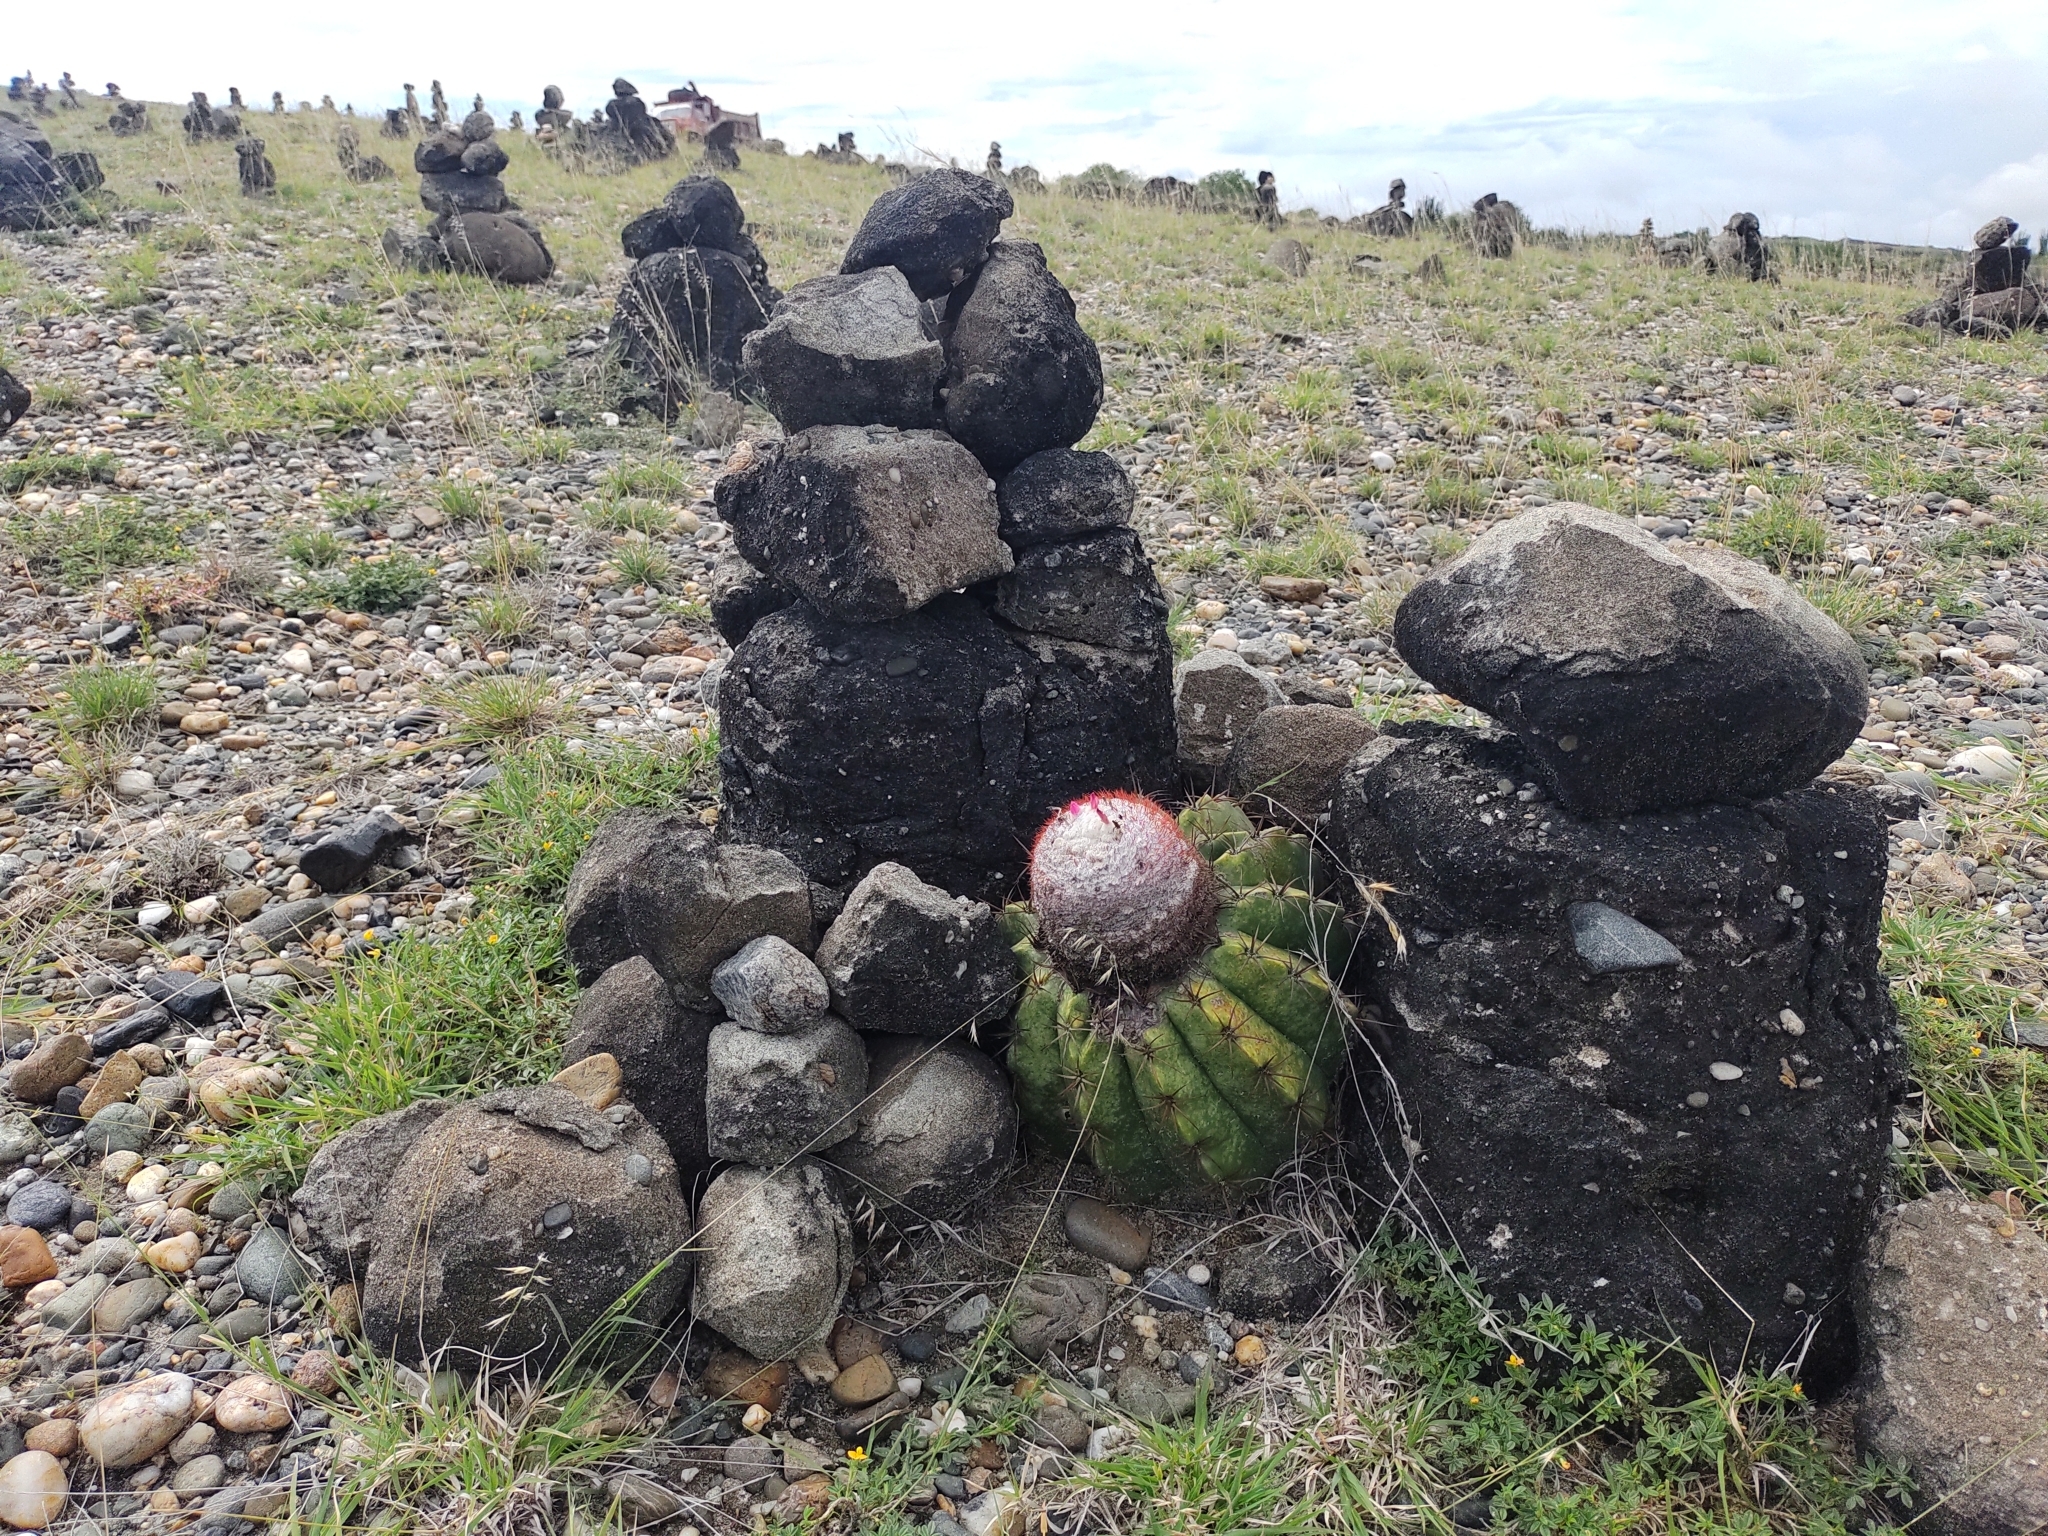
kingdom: Plantae
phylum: Tracheophyta
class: Magnoliopsida
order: Caryophyllales
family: Cactaceae
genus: Melocactus
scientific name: Melocactus curvispinus
